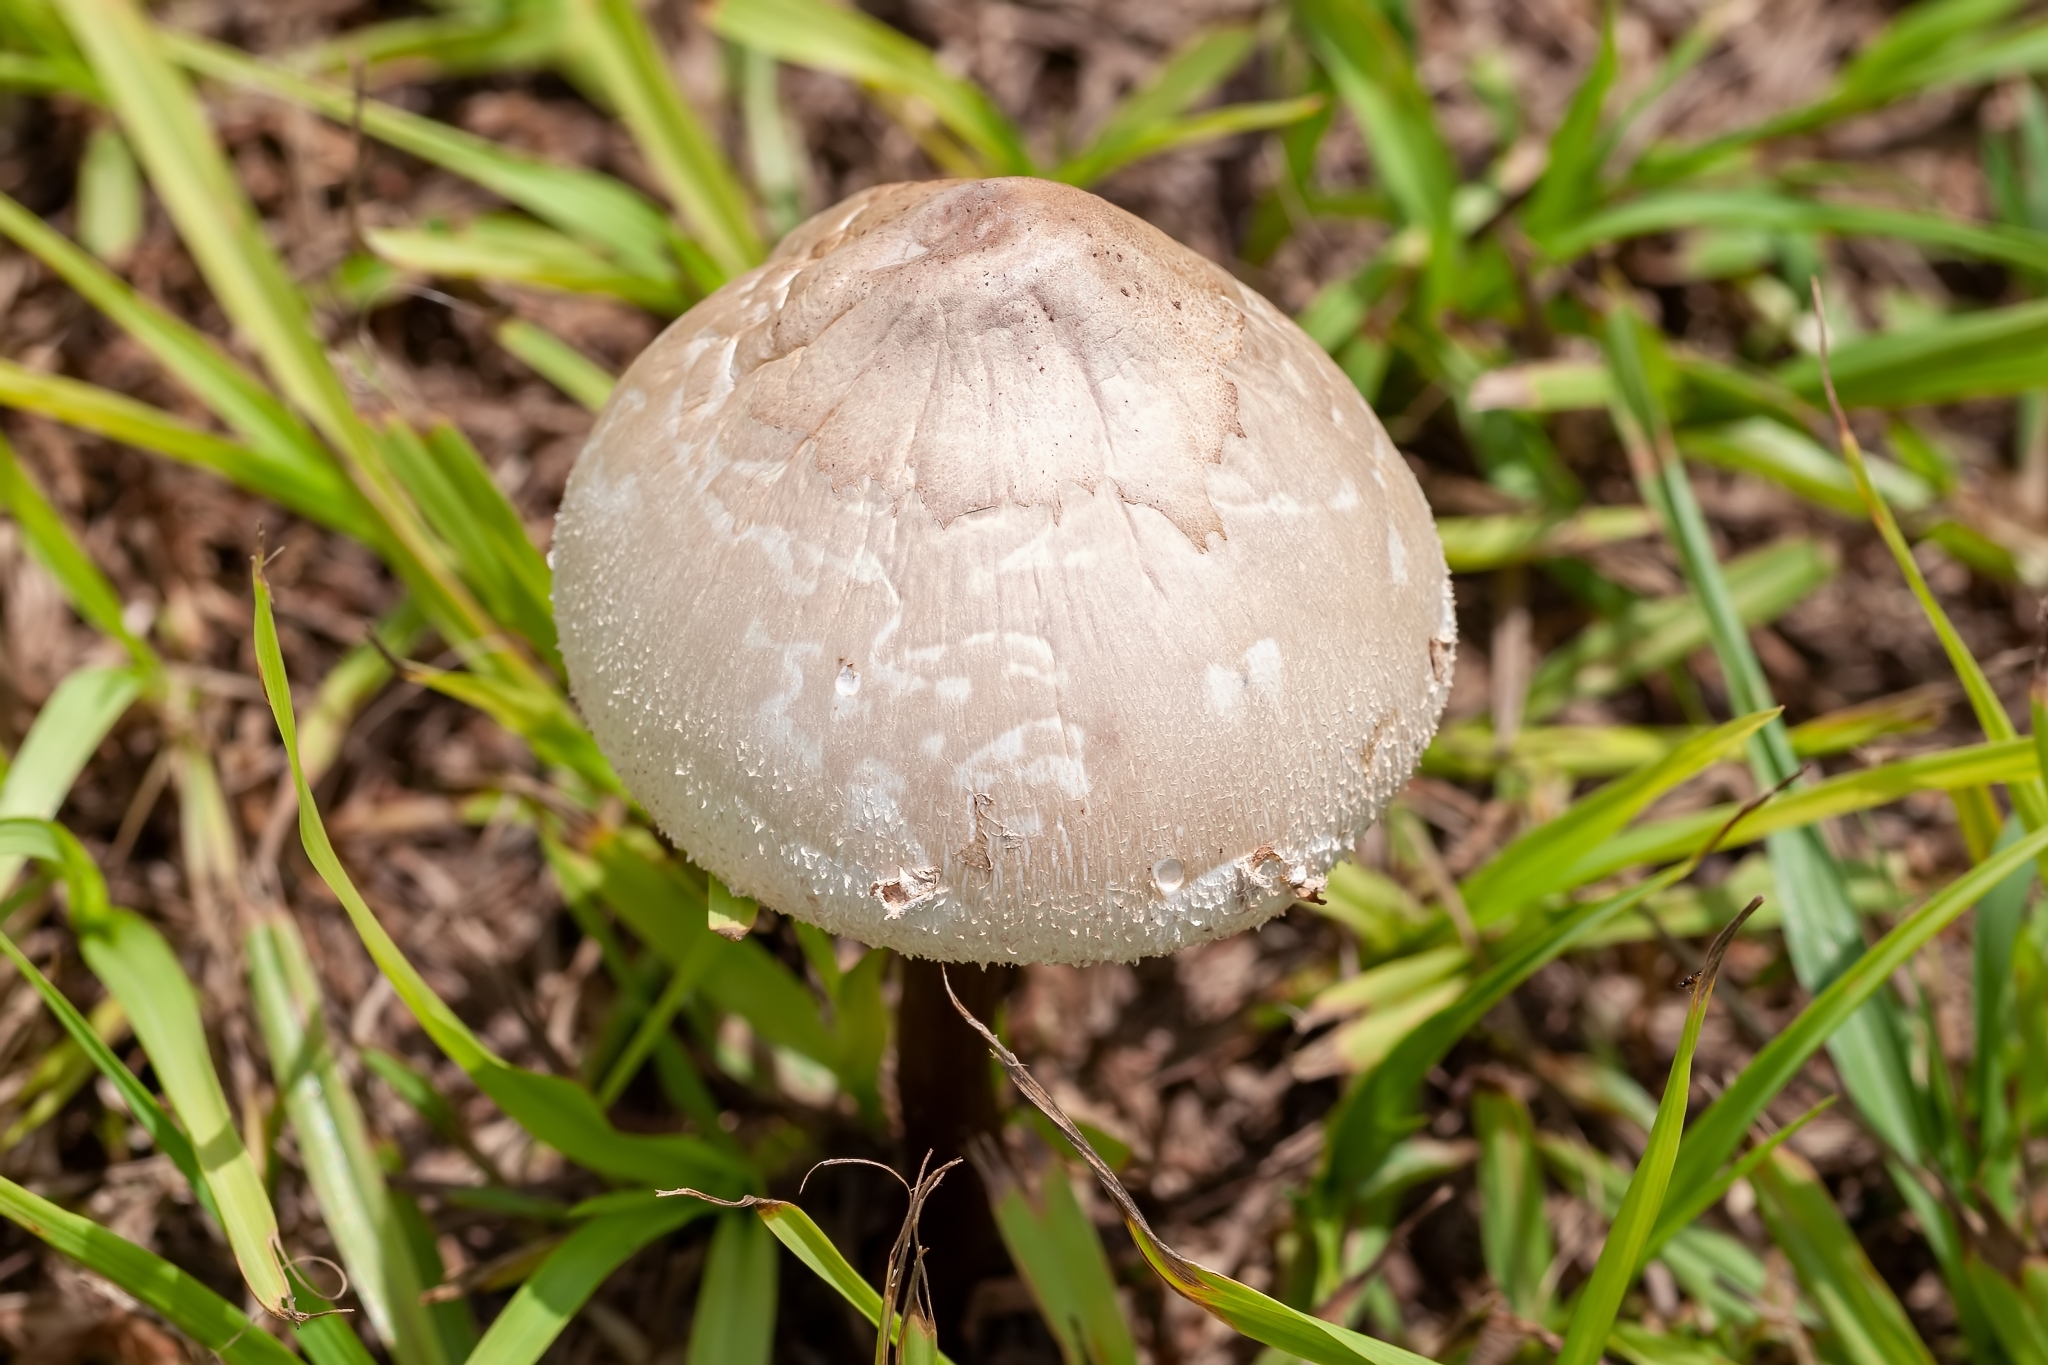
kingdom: Fungi
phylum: Basidiomycota
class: Agaricomycetes
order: Agaricales
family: Agaricaceae
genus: Chlorophyllum
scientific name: Chlorophyllum molybdites
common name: False parasol
